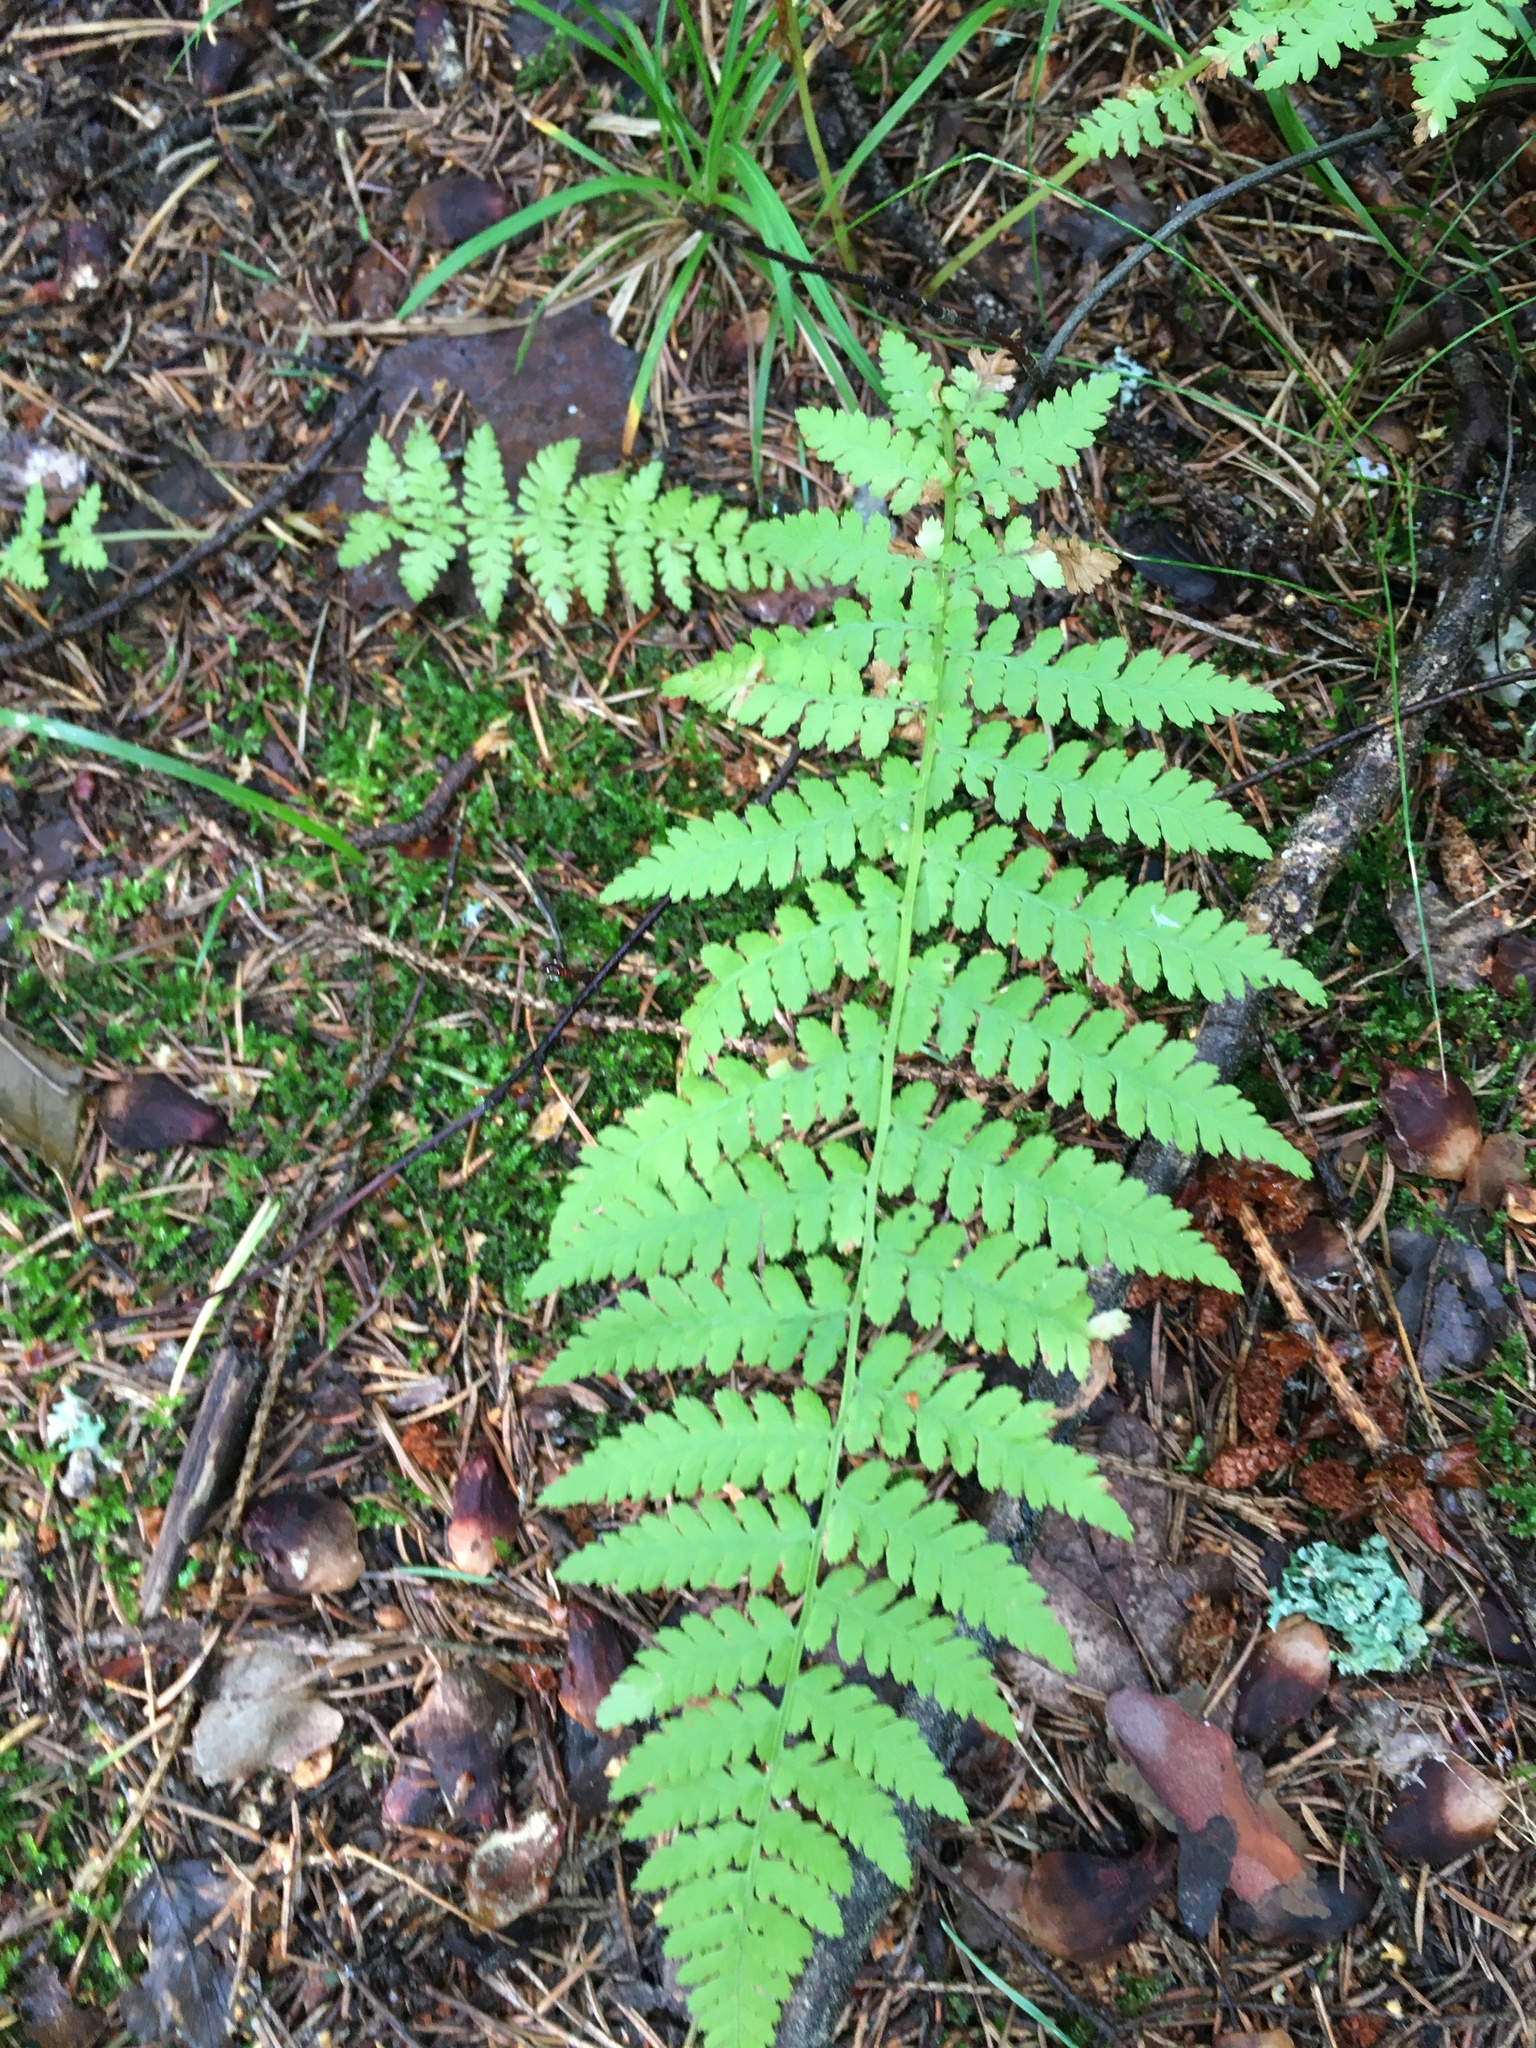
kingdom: Plantae
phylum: Tracheophyta
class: Polypodiopsida
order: Polypodiales
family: Athyriaceae
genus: Athyrium
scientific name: Athyrium filix-femina
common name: Lady fern
